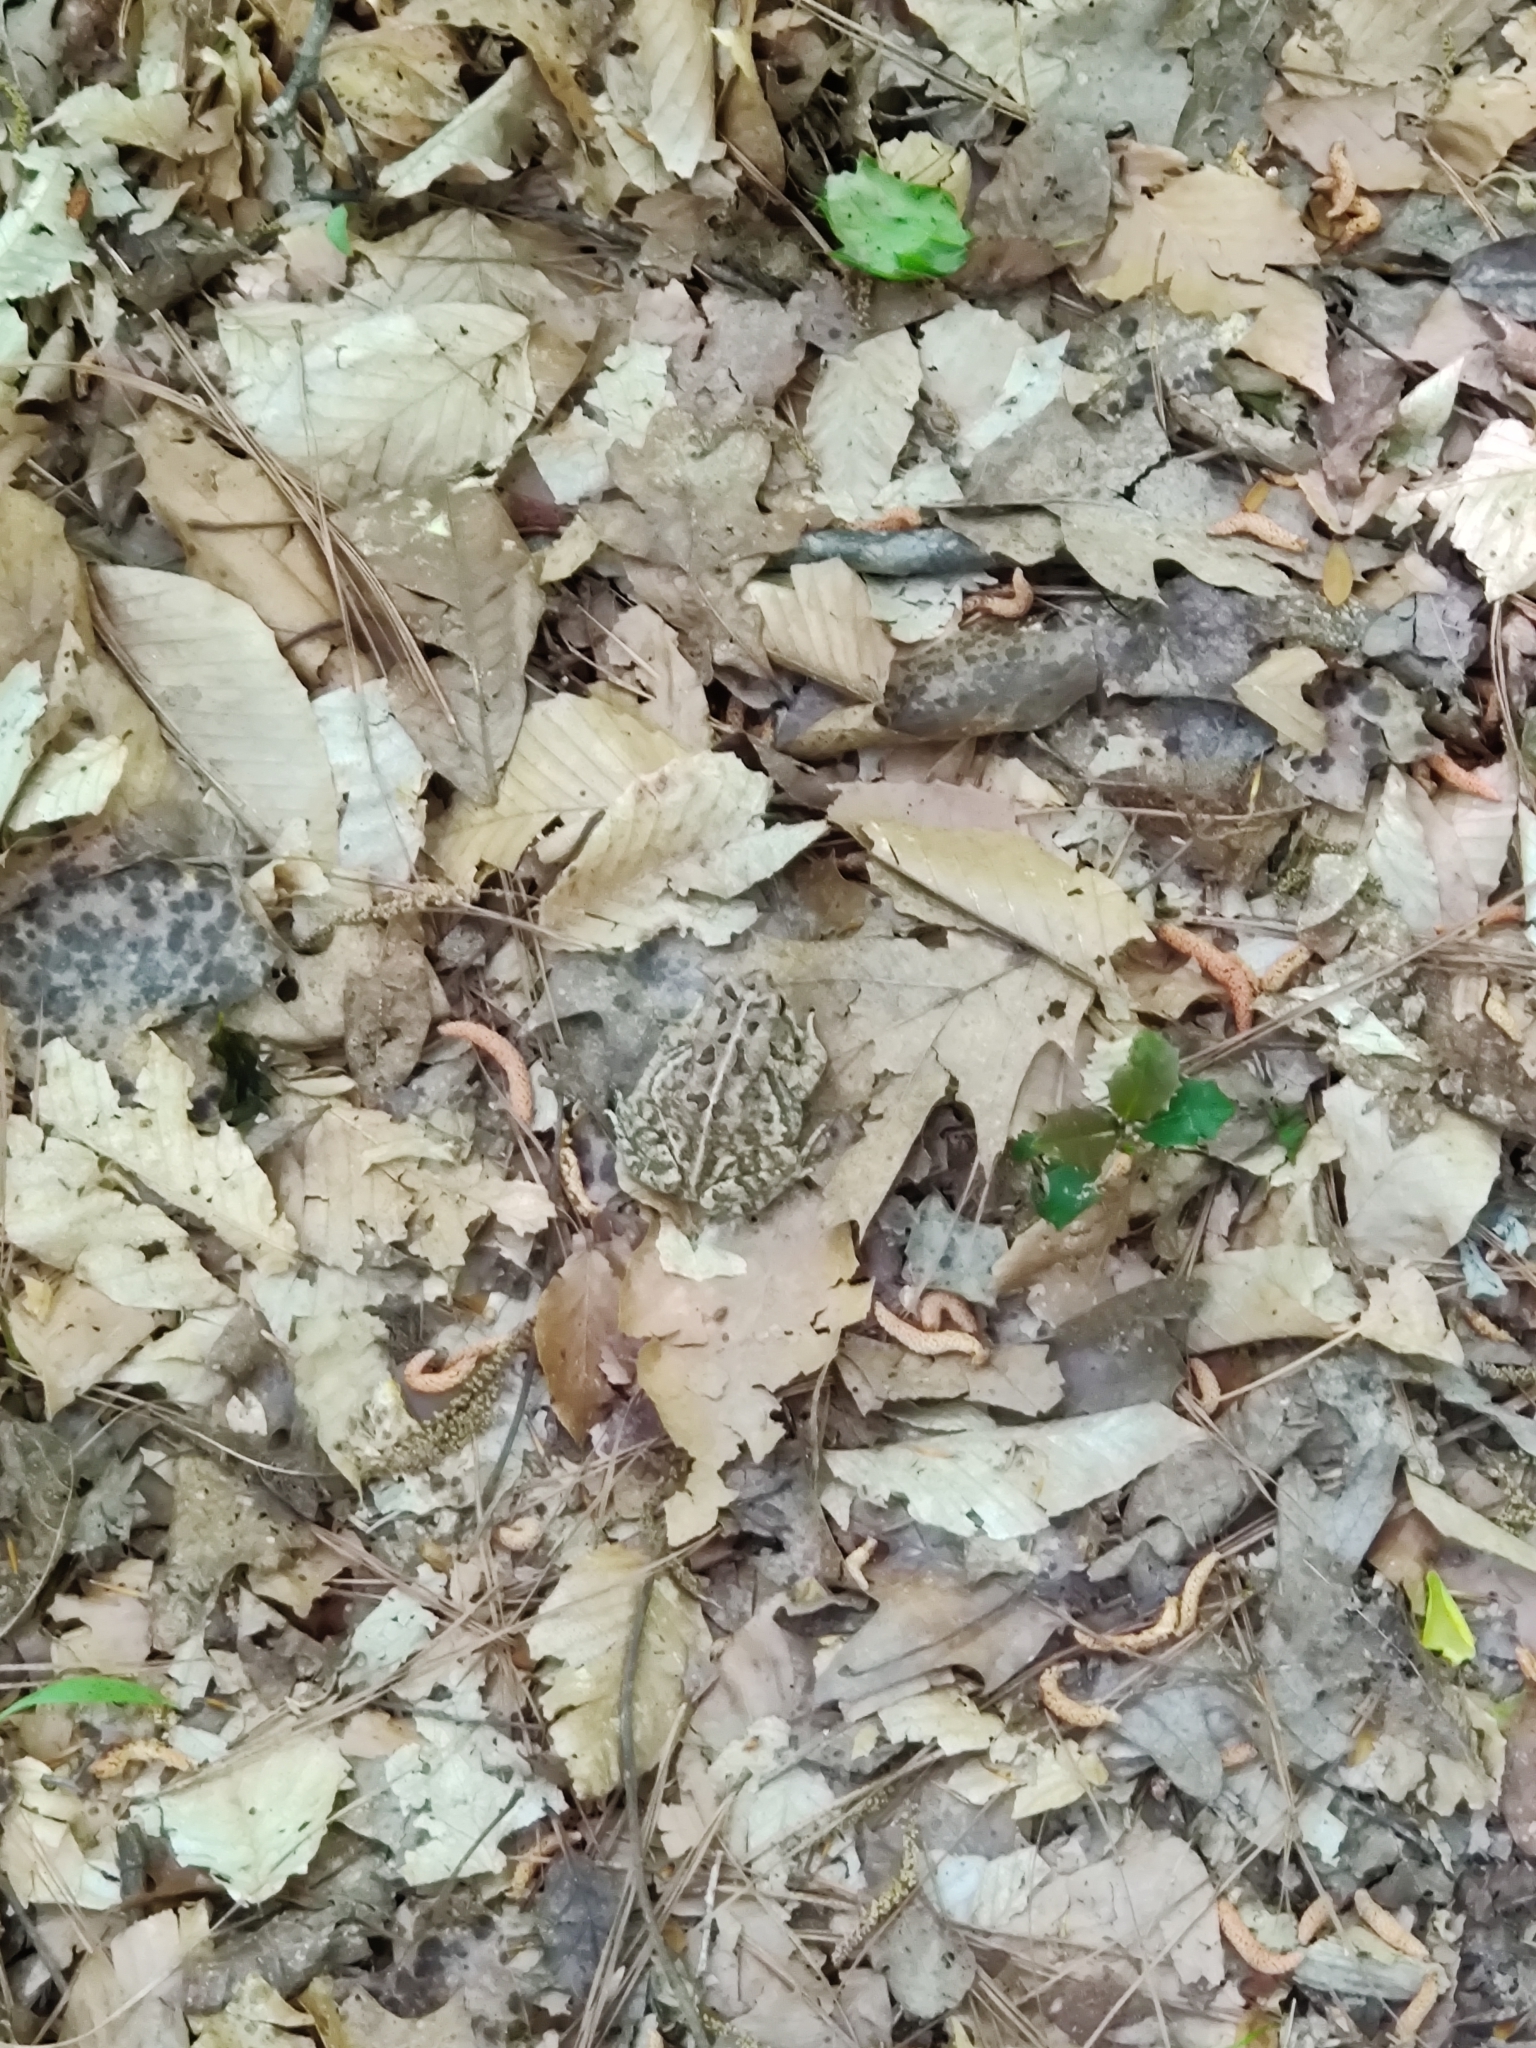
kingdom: Animalia
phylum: Chordata
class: Amphibia
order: Anura
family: Bufonidae
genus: Anaxyrus
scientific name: Anaxyrus fowleri
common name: Fowler's toad
